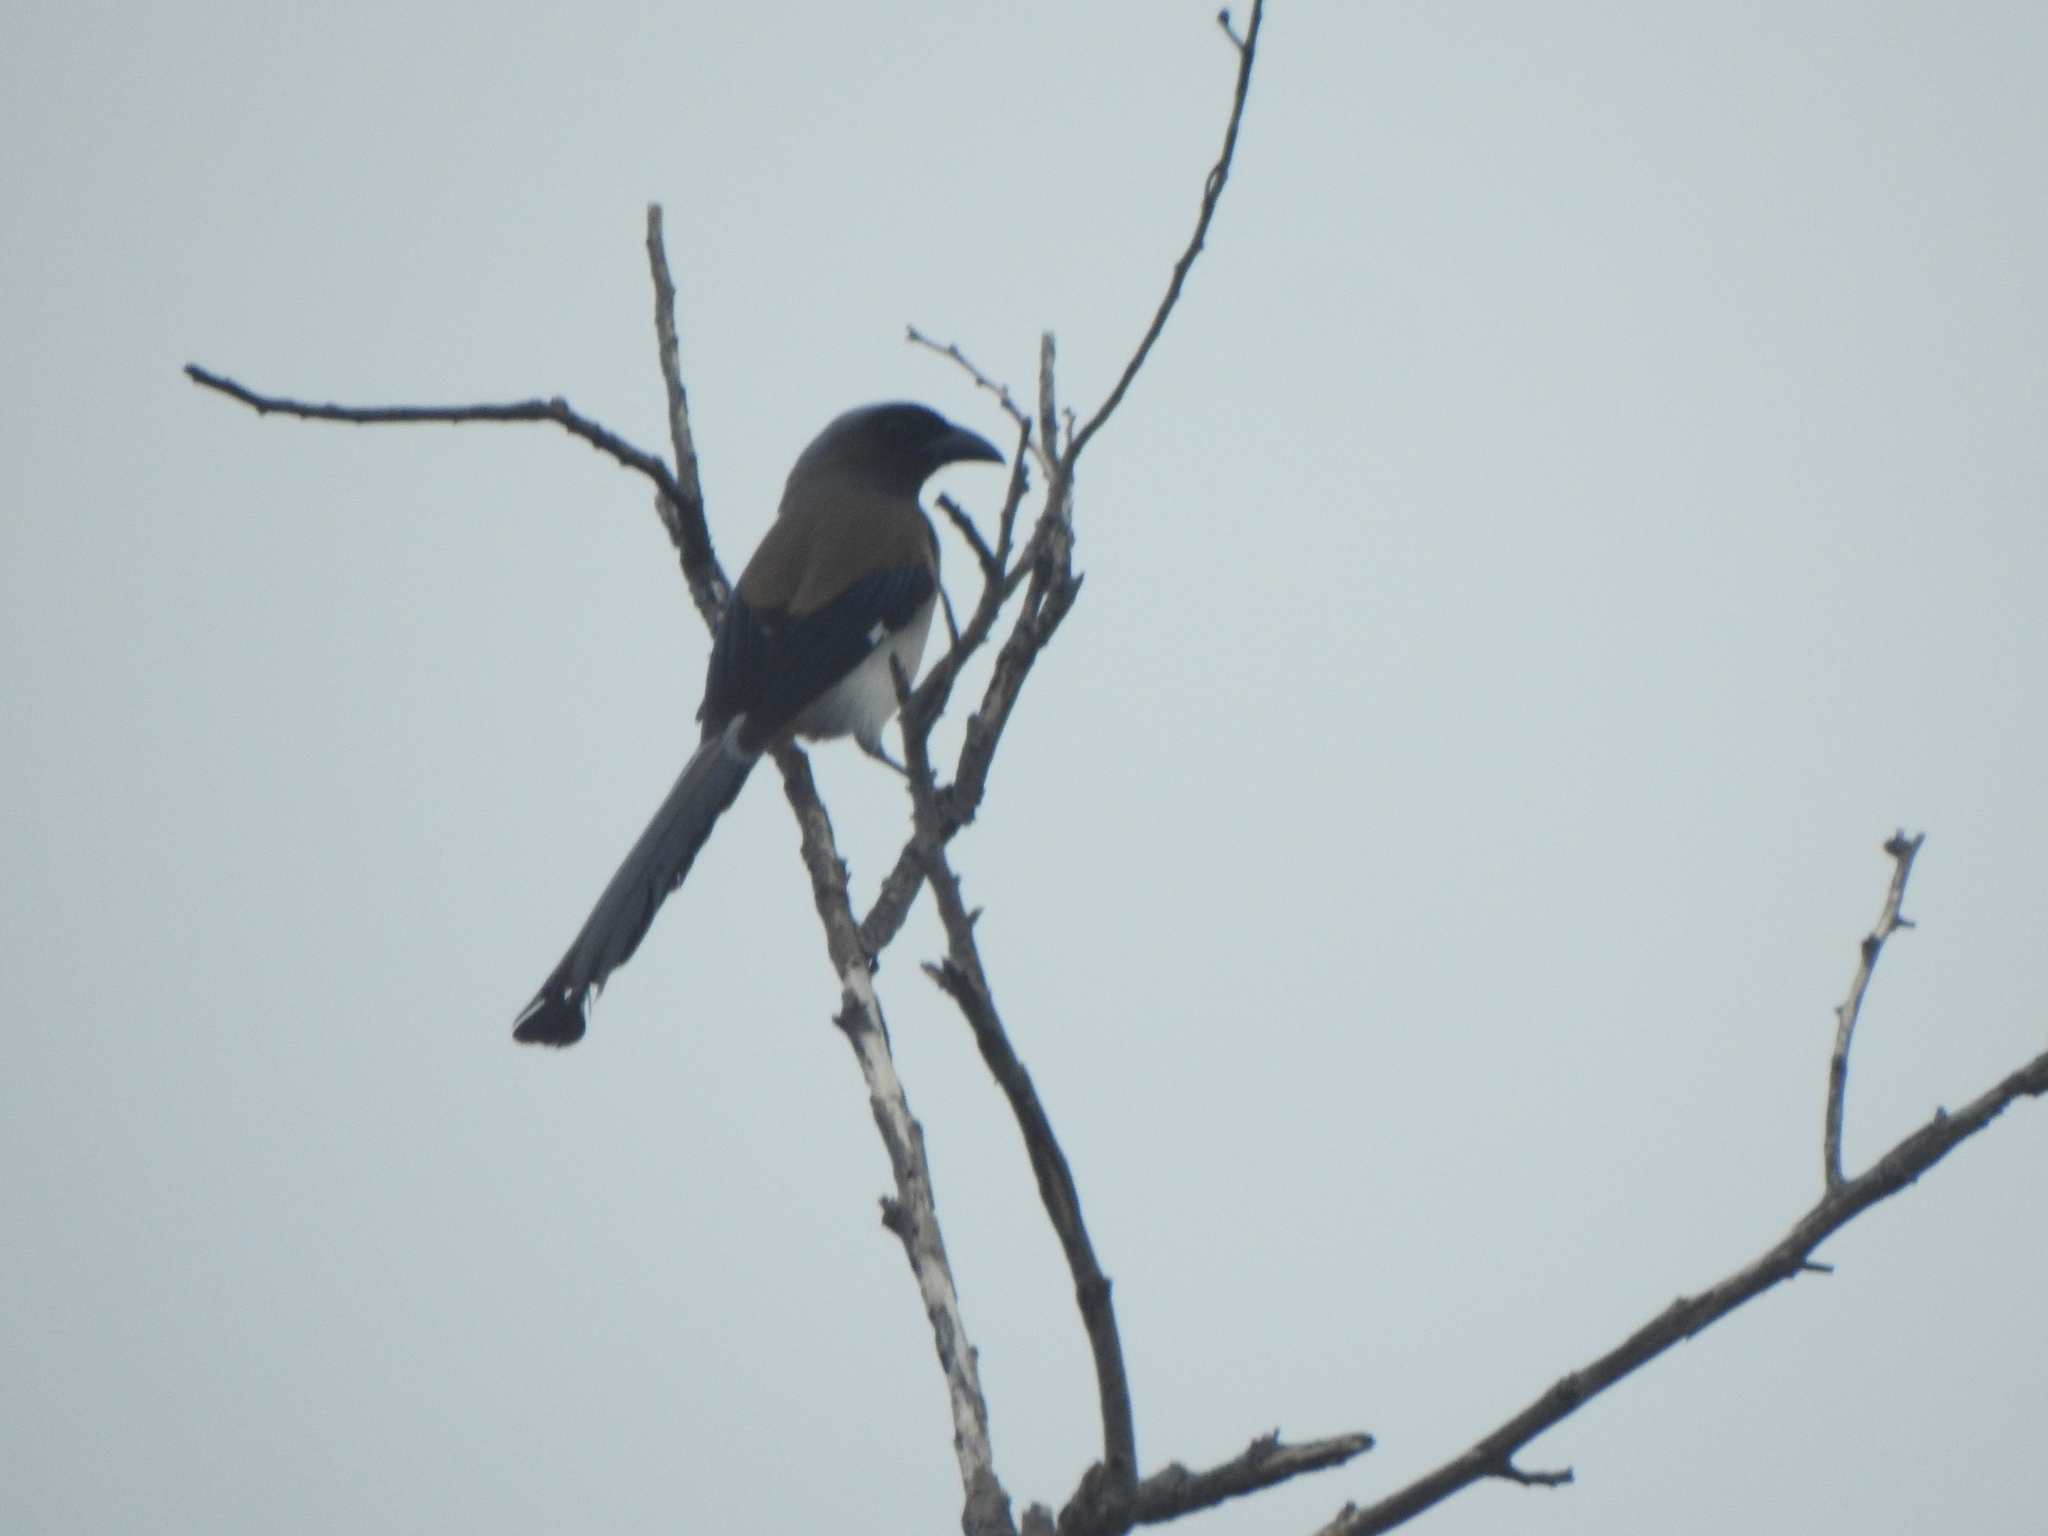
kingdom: Animalia
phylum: Chordata
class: Aves
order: Passeriformes
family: Corvidae
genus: Dendrocitta
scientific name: Dendrocitta formosae
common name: Grey treepie
